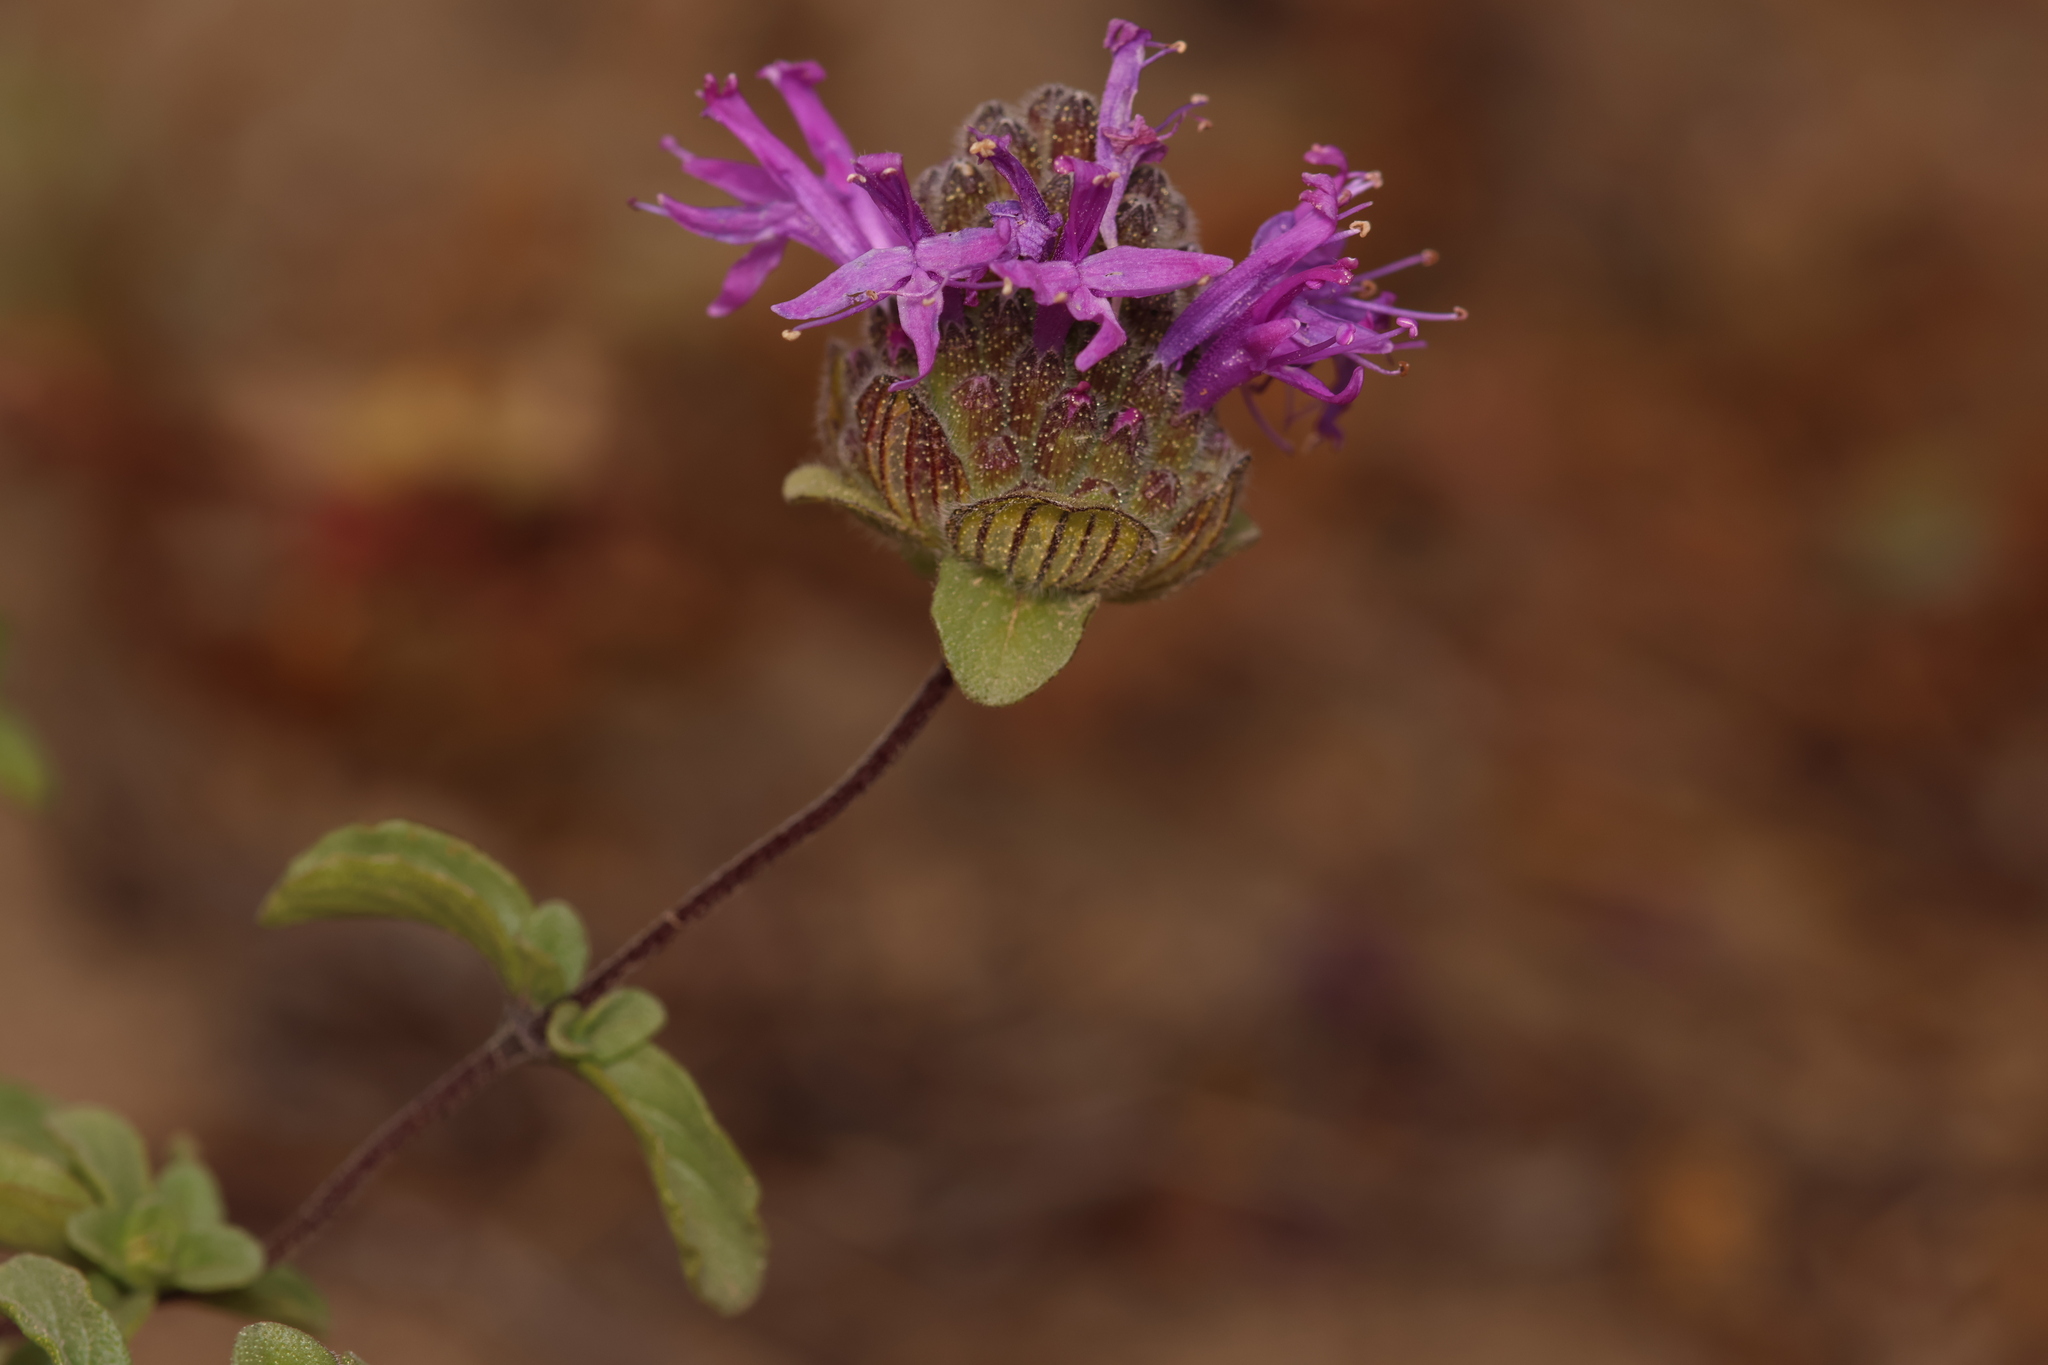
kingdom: Plantae
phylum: Tracheophyta
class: Magnoliopsida
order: Lamiales
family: Lamiaceae
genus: Monardella
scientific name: Monardella sinuata
